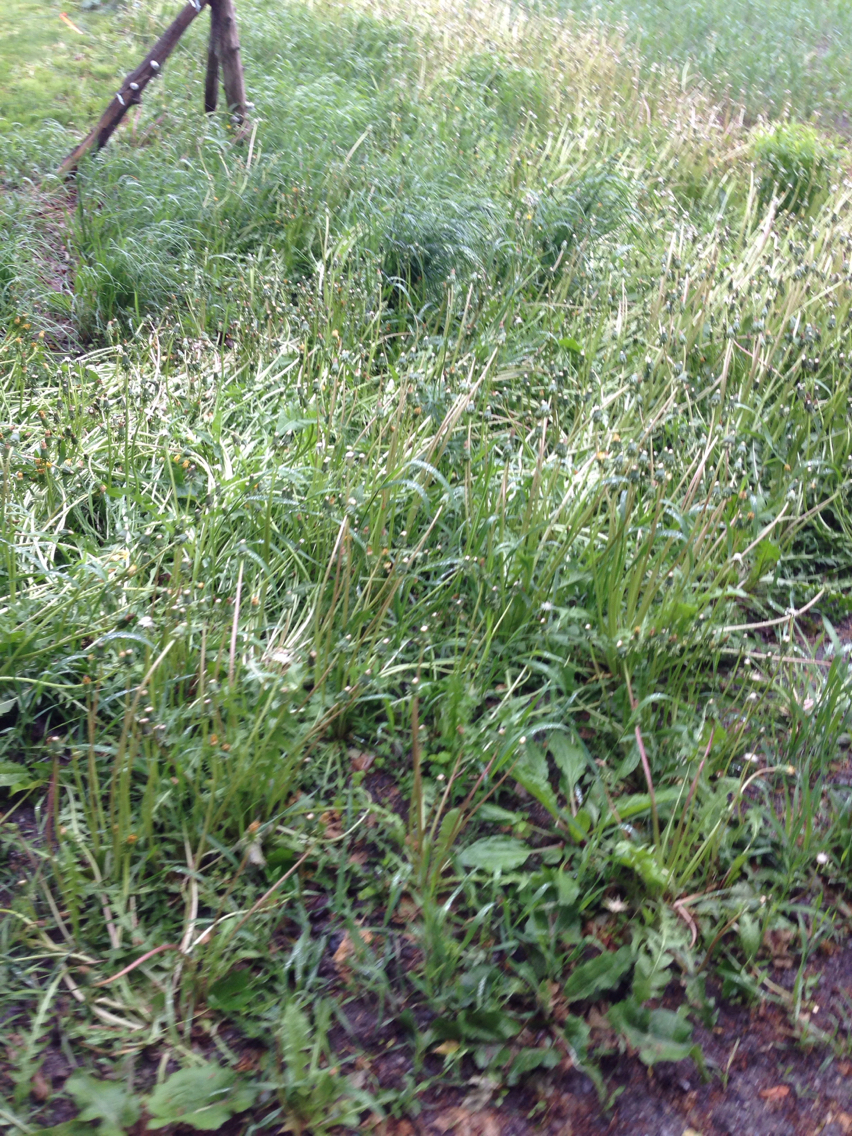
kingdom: Plantae
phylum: Tracheophyta
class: Magnoliopsida
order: Asterales
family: Asteraceae
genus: Taraxacum
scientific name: Taraxacum officinale
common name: Common dandelion
